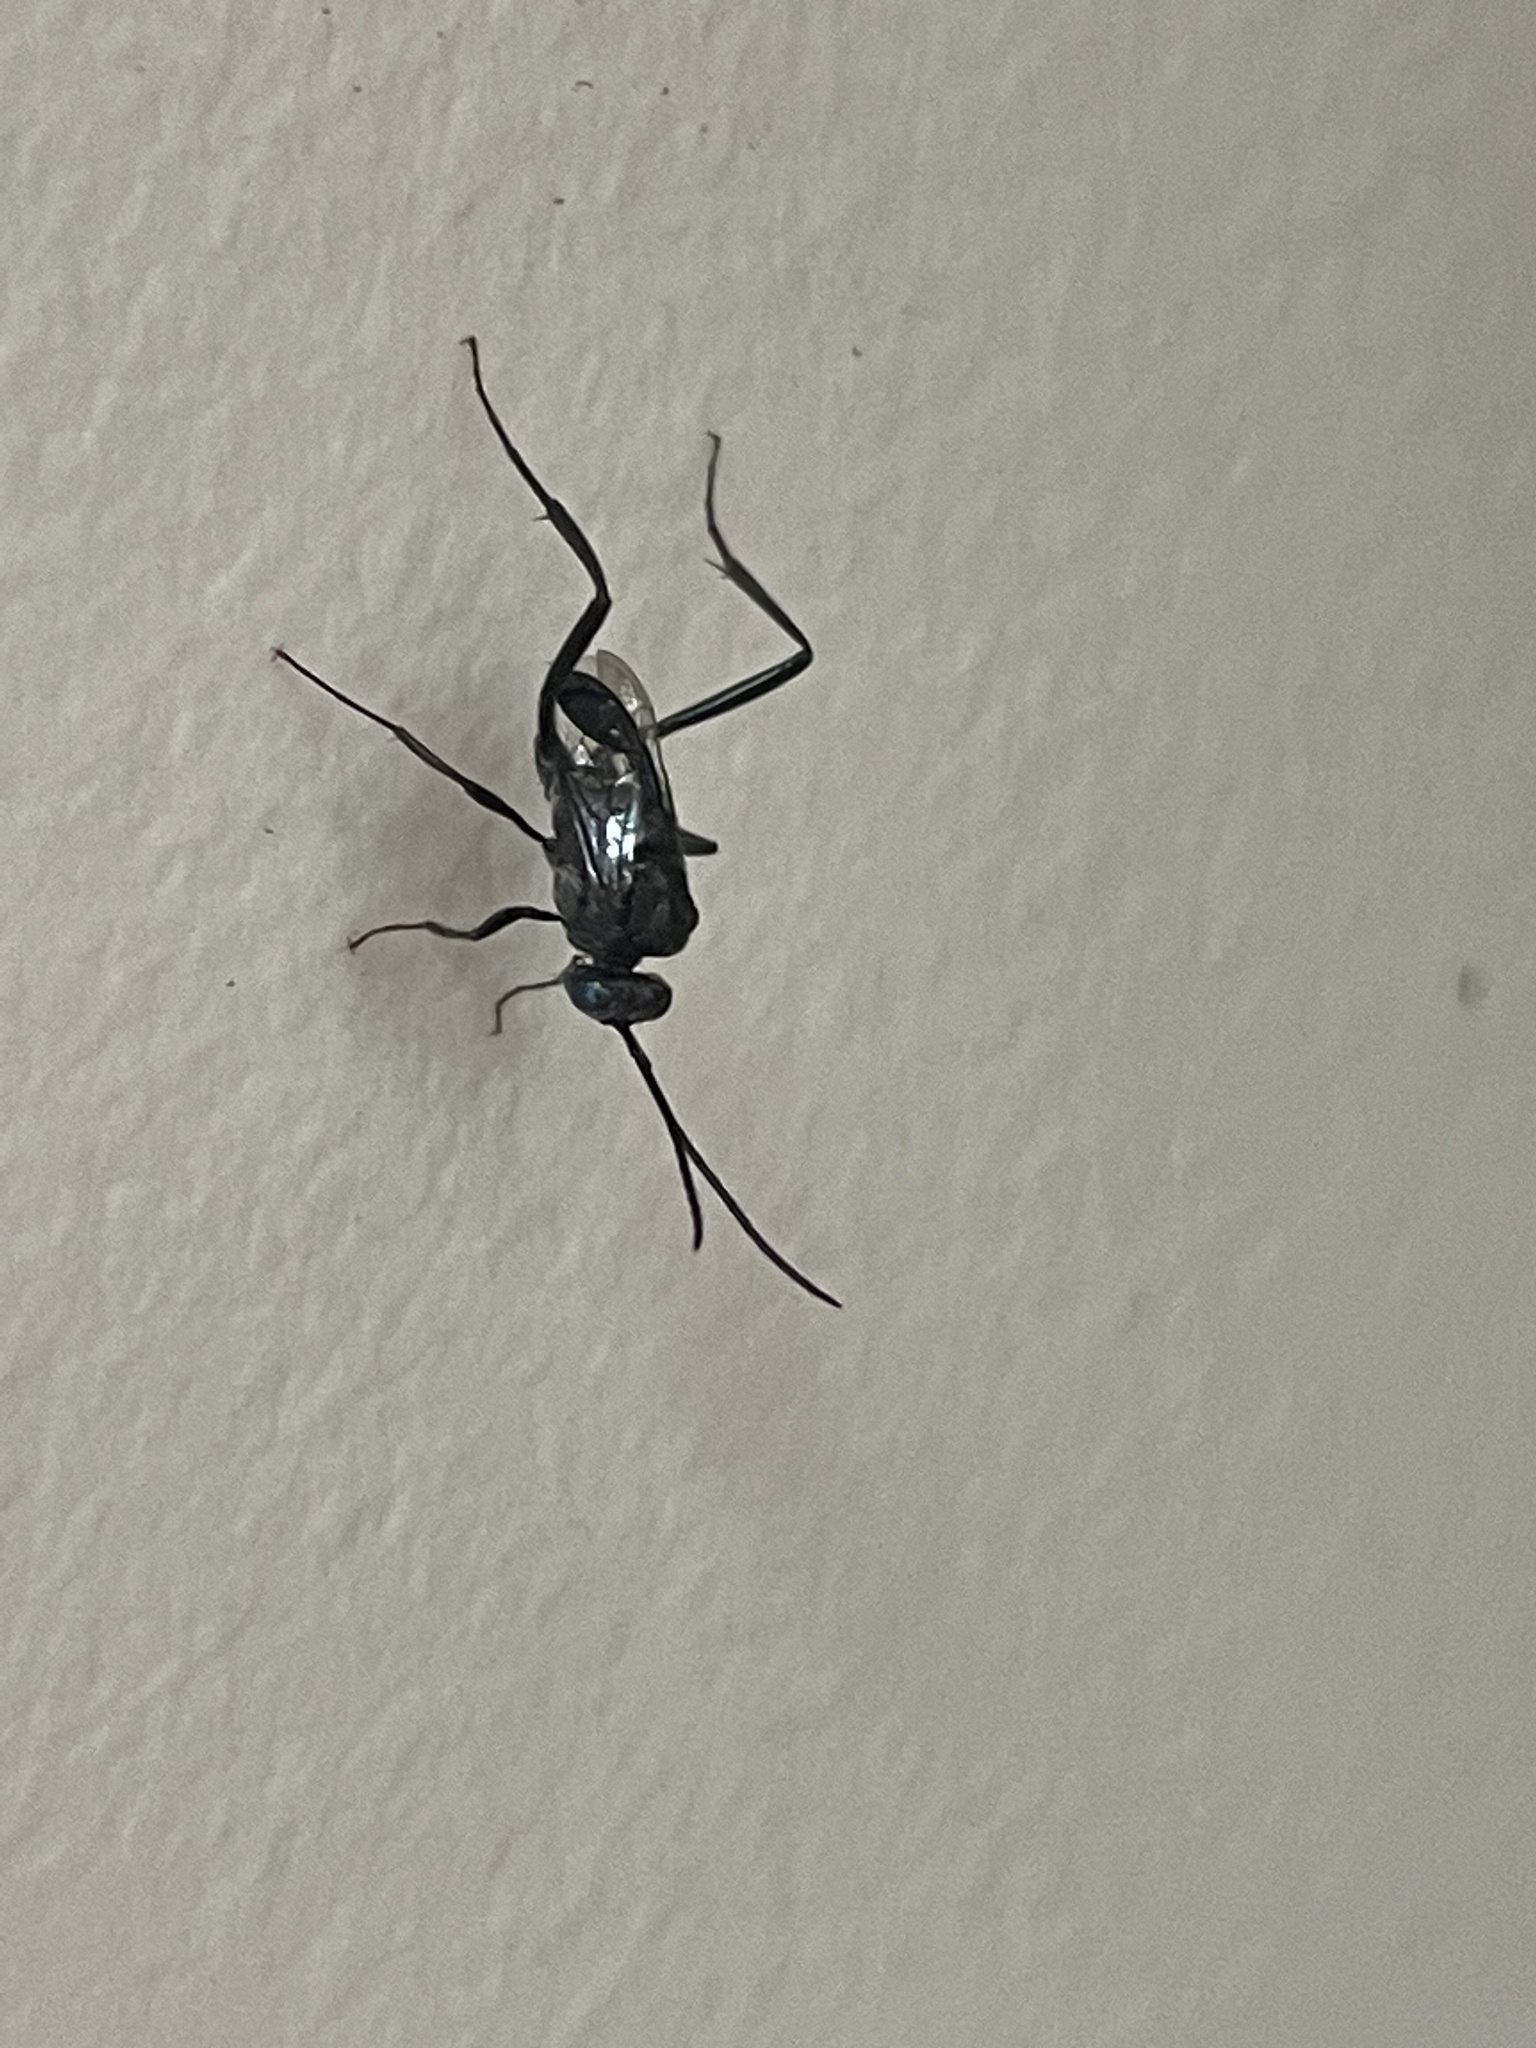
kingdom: Animalia
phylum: Arthropoda
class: Insecta
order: Hymenoptera
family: Evaniidae
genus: Evania
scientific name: Evania appendigaster
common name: Ensign wasp
